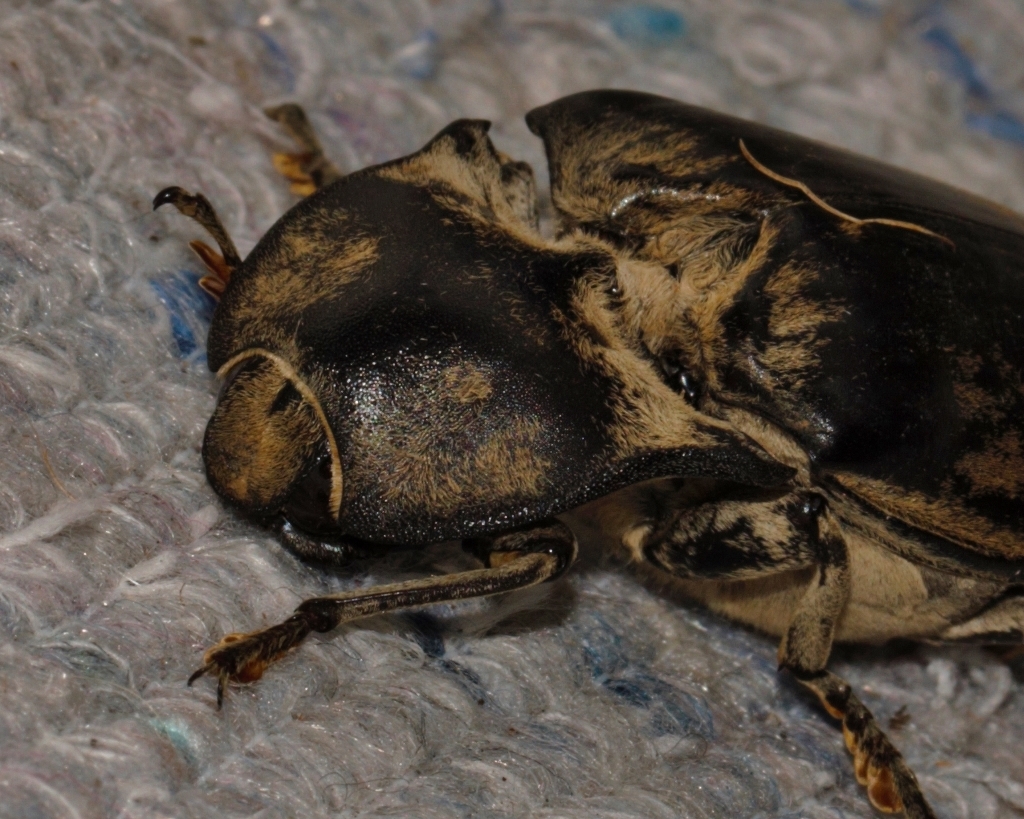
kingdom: Animalia
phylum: Arthropoda
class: Insecta
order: Coleoptera
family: Elateridae
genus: Tetralobus
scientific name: Tetralobus flabellicornis
